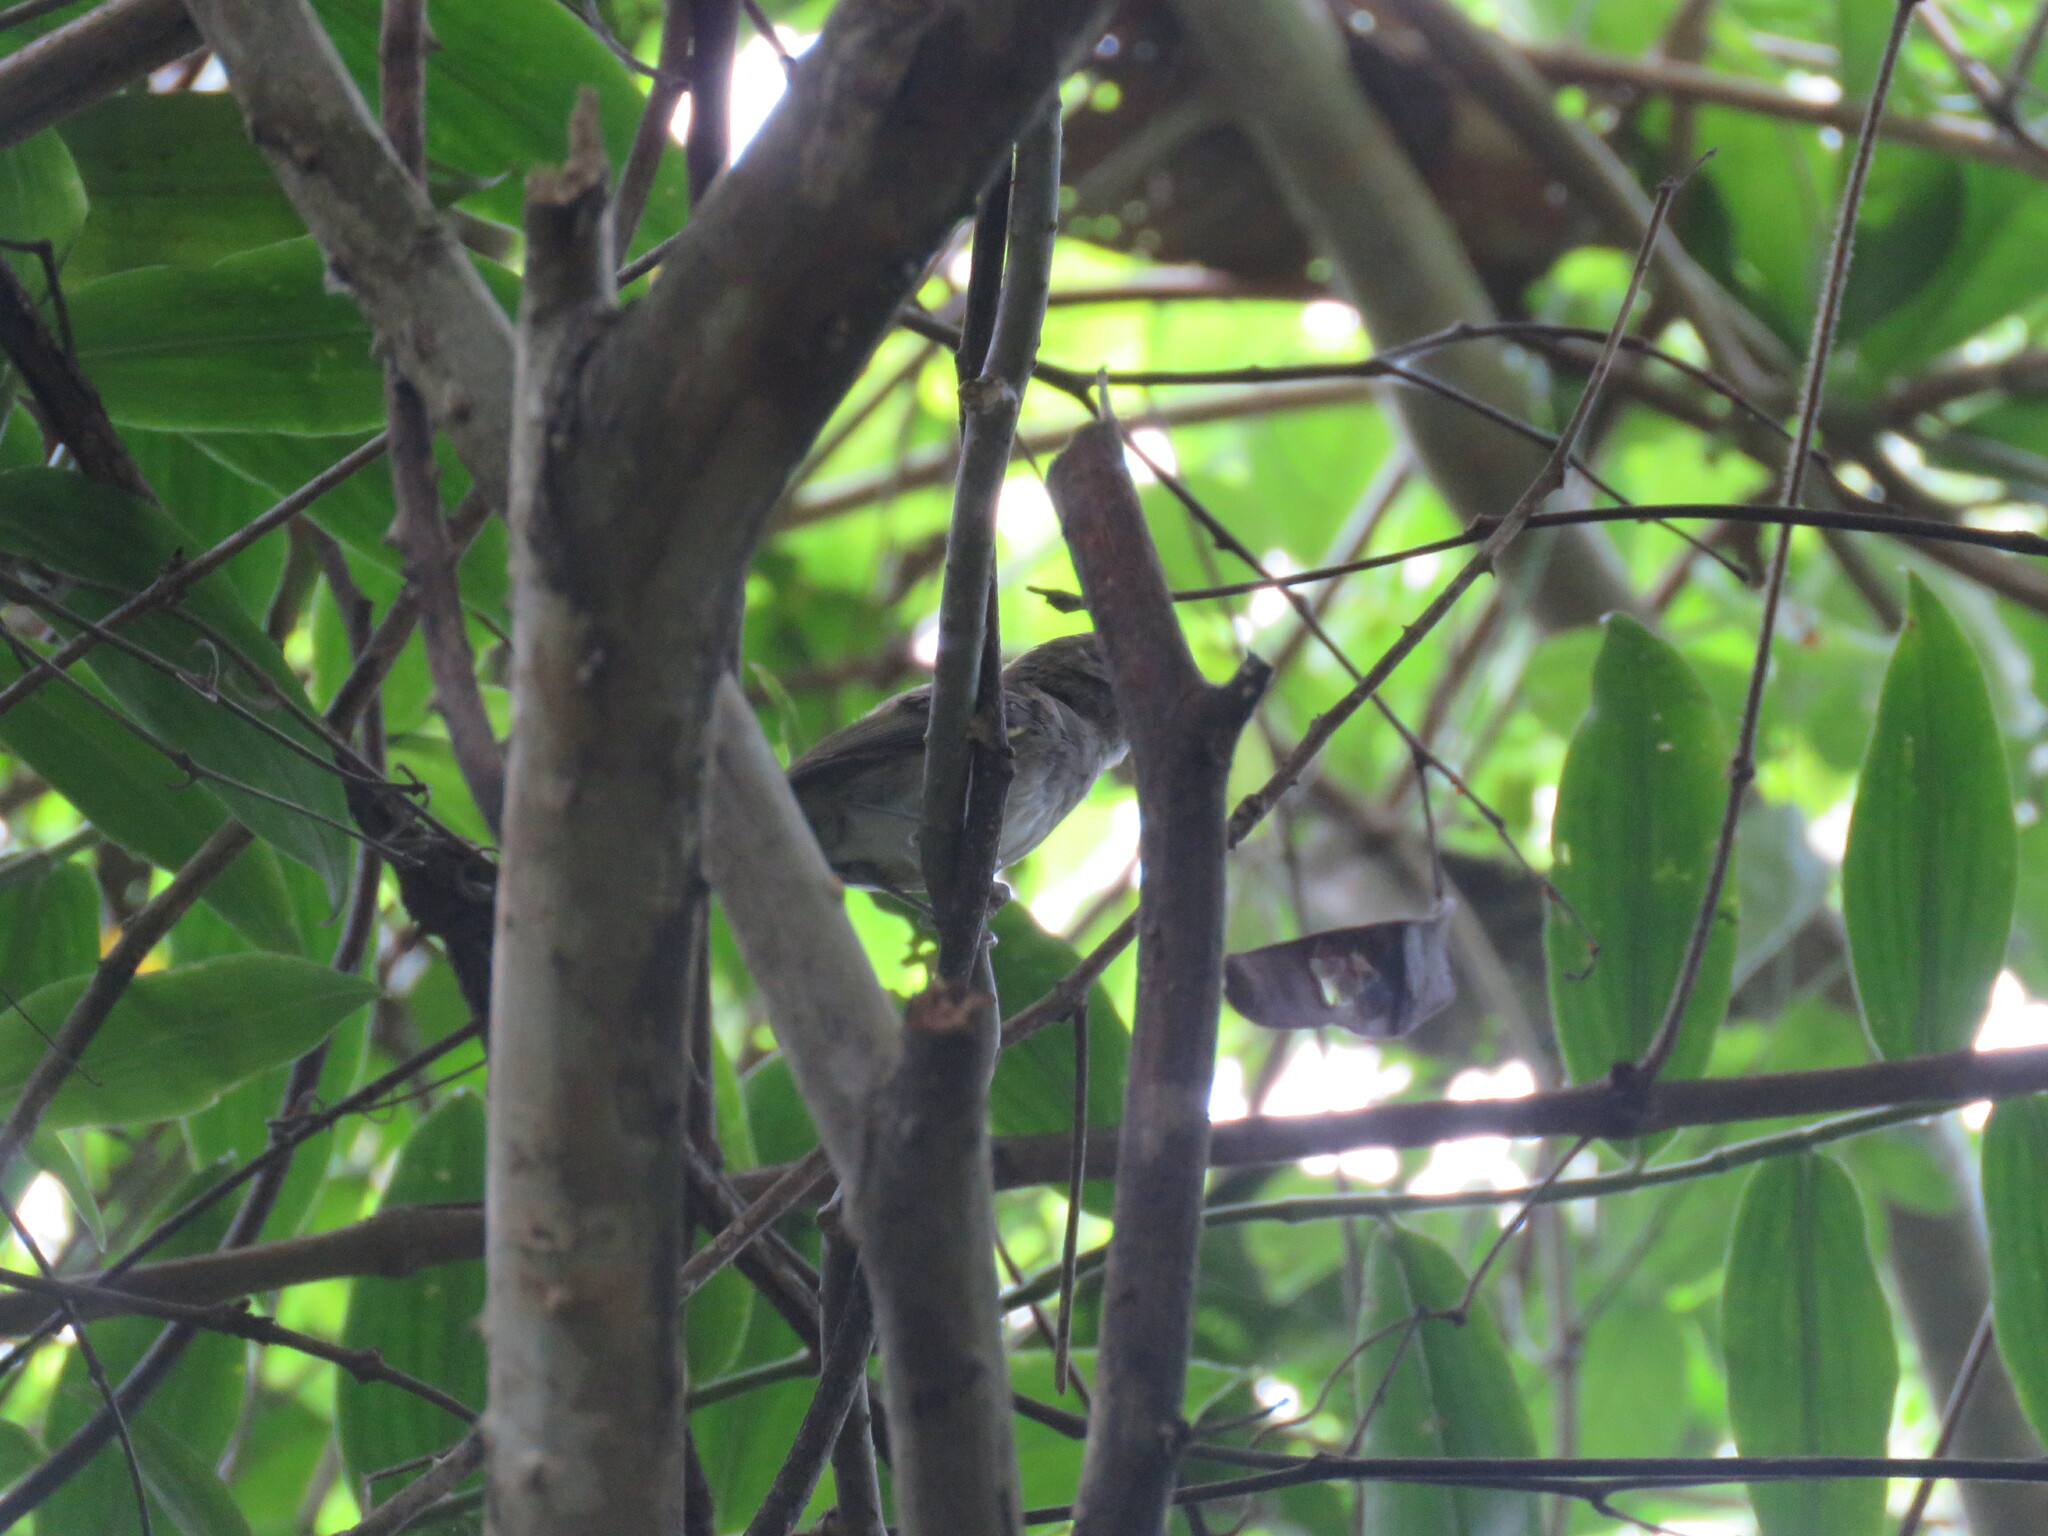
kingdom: Animalia
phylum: Chordata
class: Aves
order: Passeriformes
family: Tyrannidae
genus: Hemitriccus
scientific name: Hemitriccus flammulatus
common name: Flammulated bamboo tyrant
